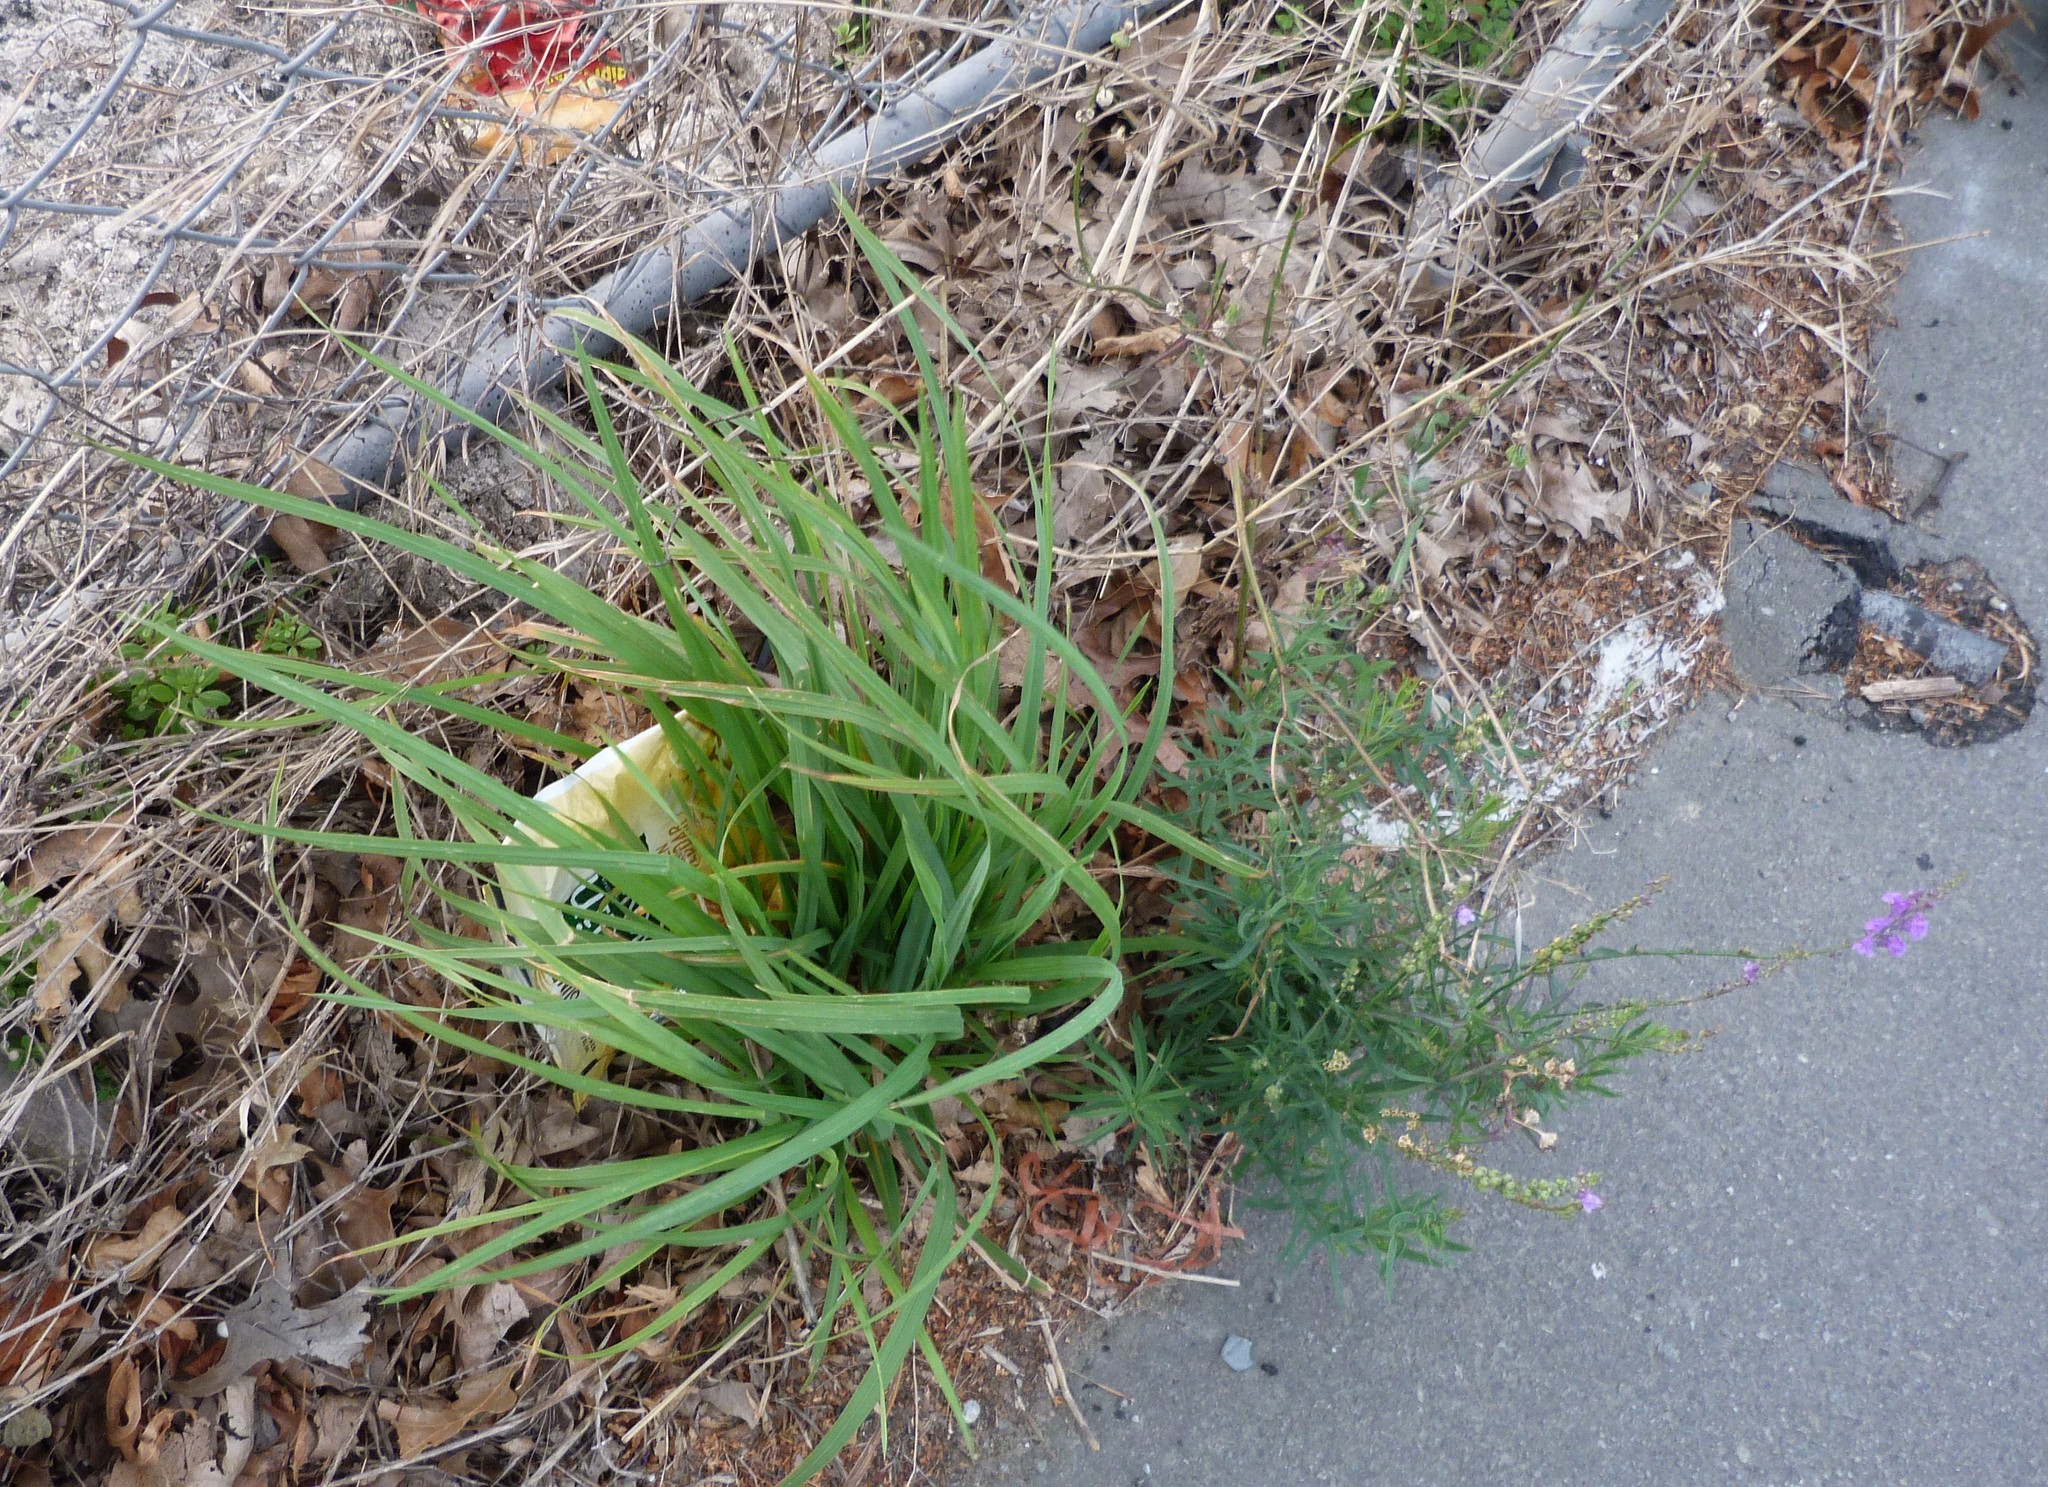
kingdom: Plantae
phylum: Tracheophyta
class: Liliopsida
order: Poales
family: Poaceae
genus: Bromus
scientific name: Bromus catharticus
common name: Rescuegrass
